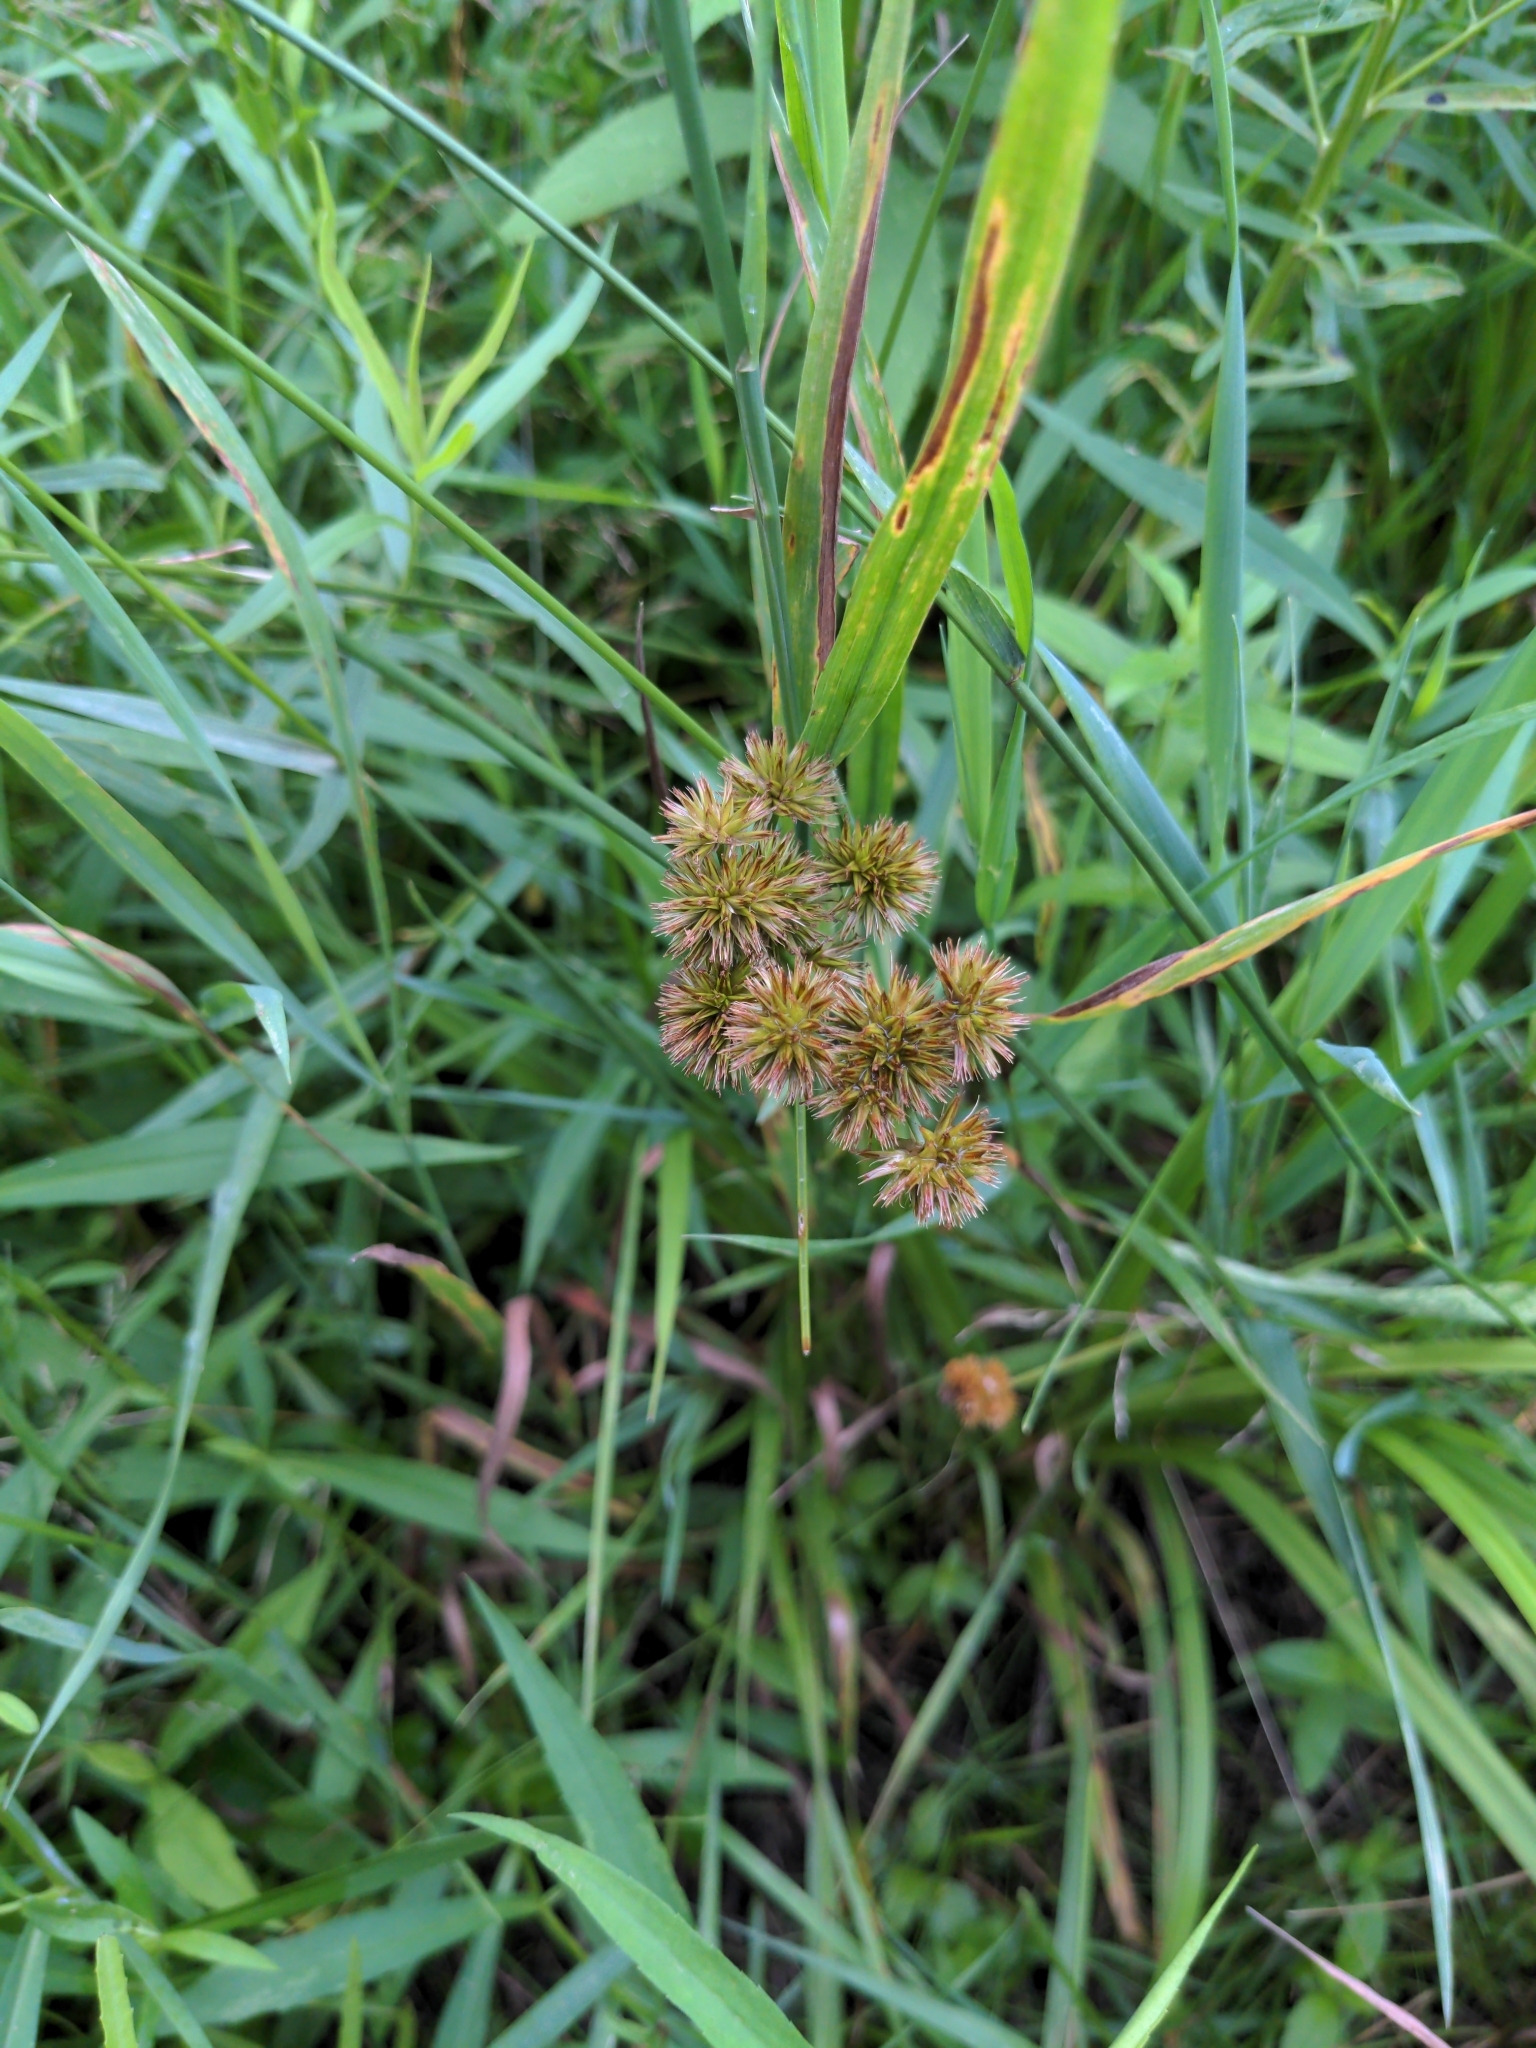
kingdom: Plantae
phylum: Tracheophyta
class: Liliopsida
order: Poales
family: Juncaceae
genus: Juncus
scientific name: Juncus torreyi
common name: Torrey's rush
